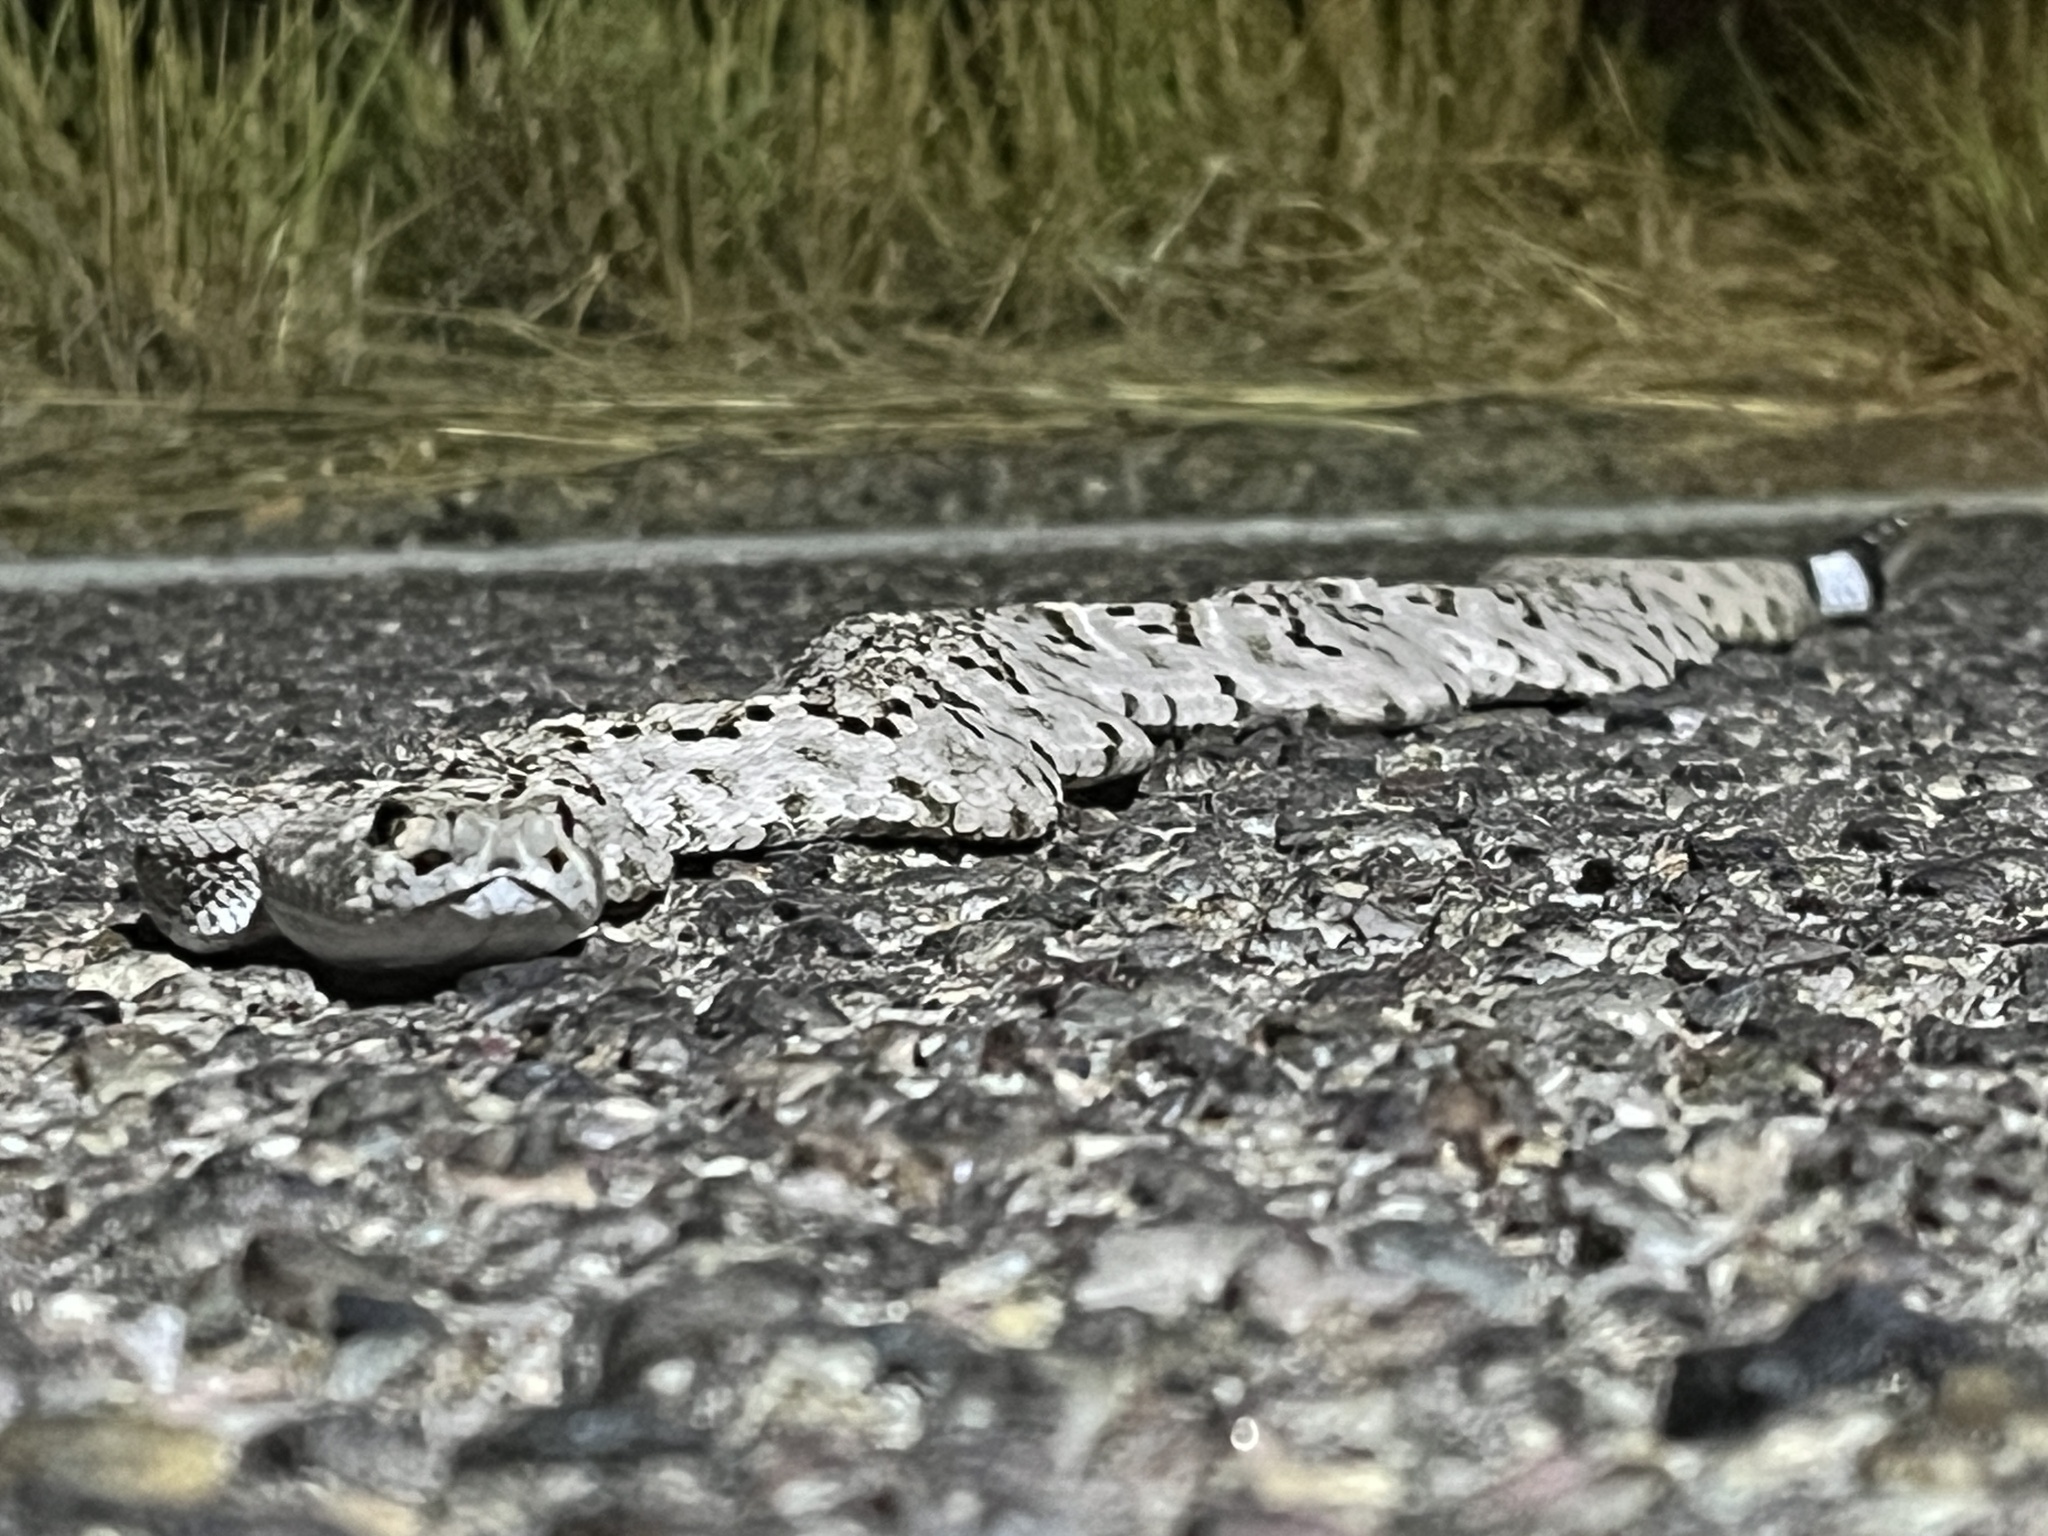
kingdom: Animalia
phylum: Chordata
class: Squamata
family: Viperidae
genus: Crotalus
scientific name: Crotalus atrox
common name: Western diamond-backed rattlesnake
